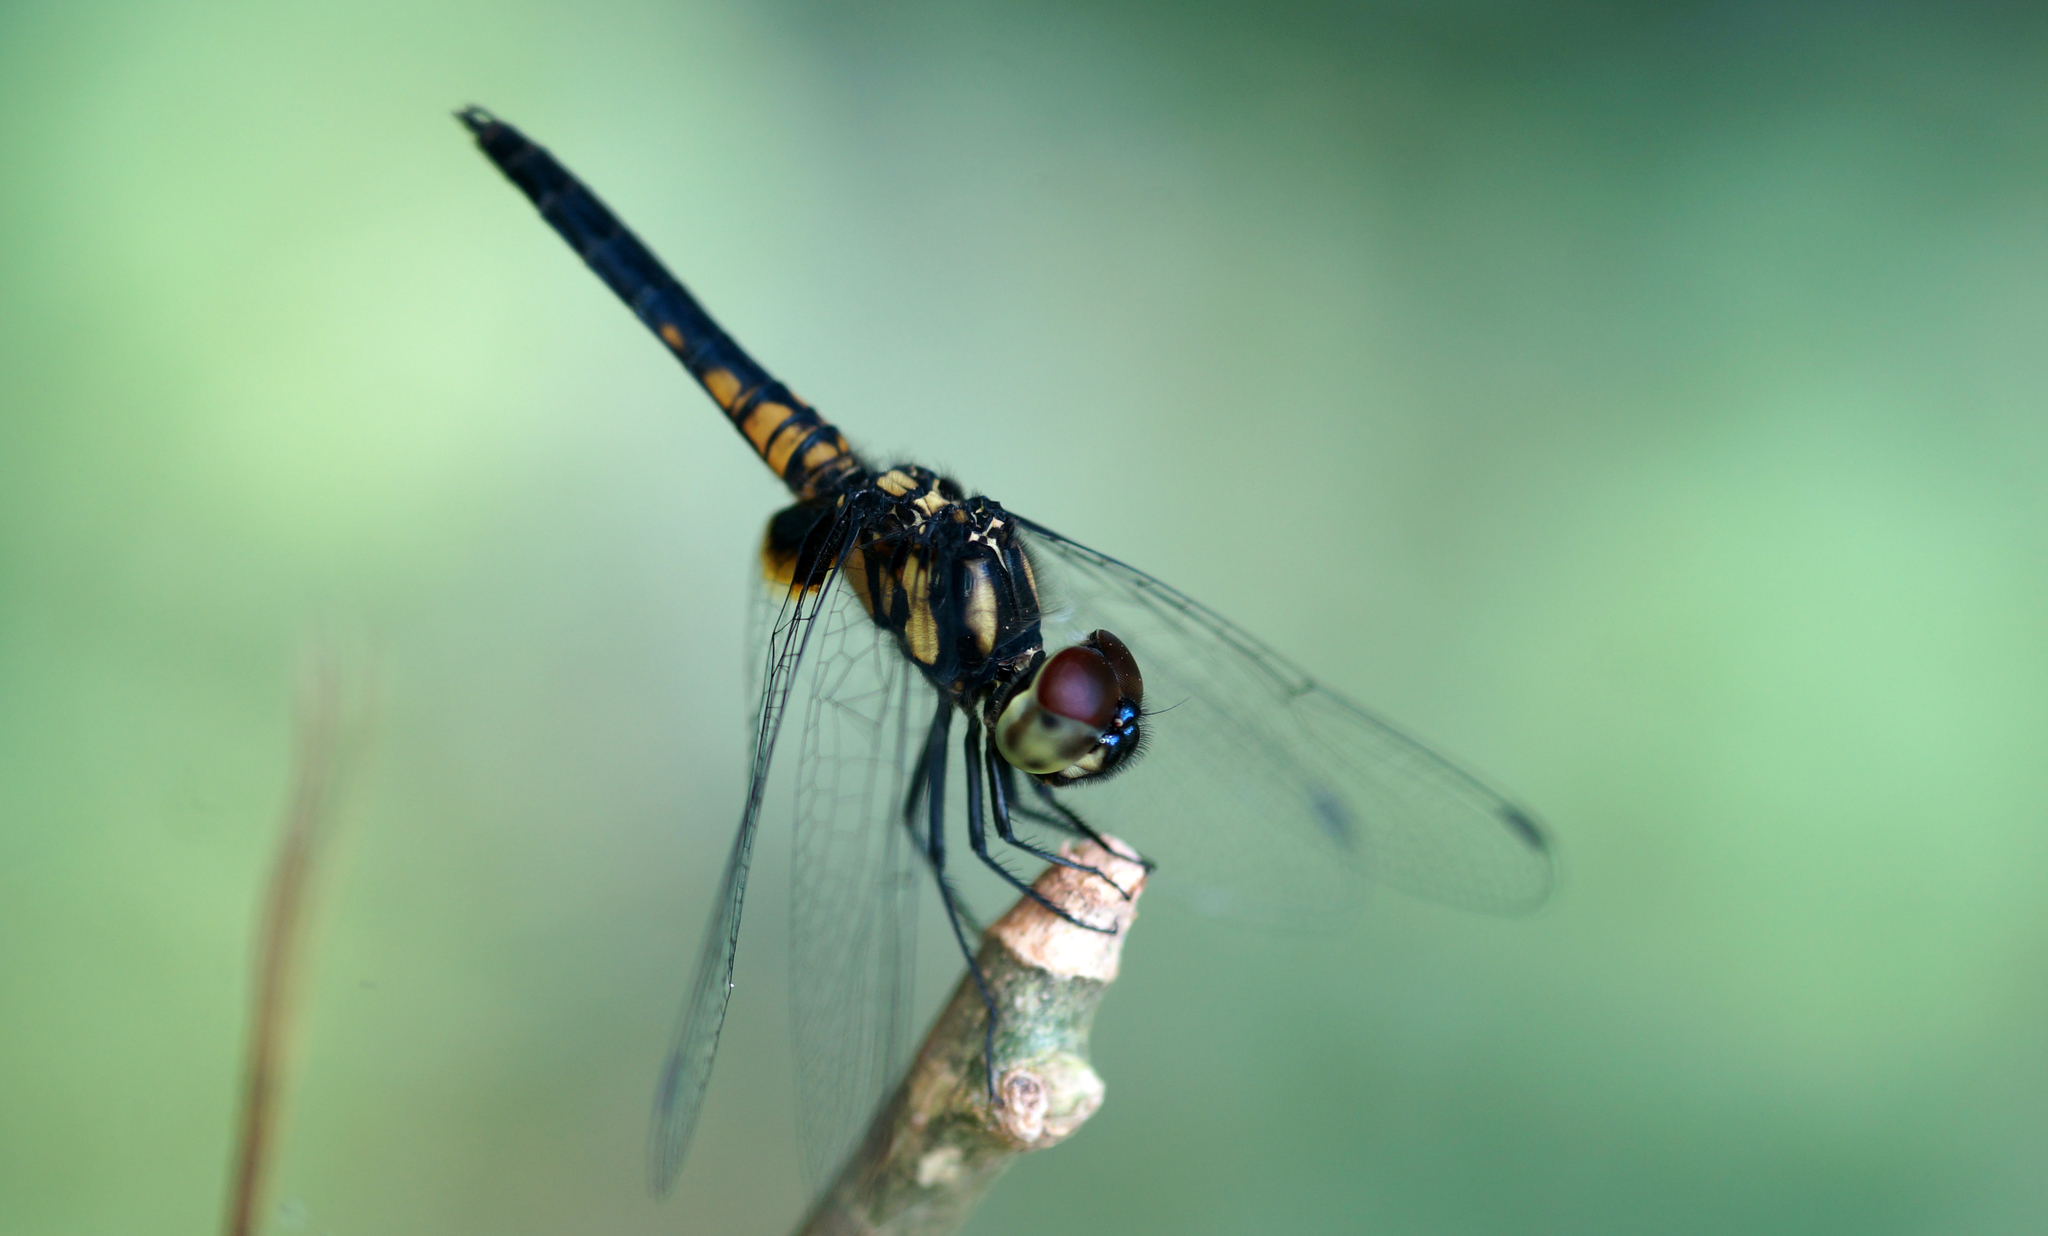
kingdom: Animalia
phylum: Arthropoda
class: Insecta
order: Odonata
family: Libellulidae
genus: Aethriamanta
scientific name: Aethriamanta aethra
